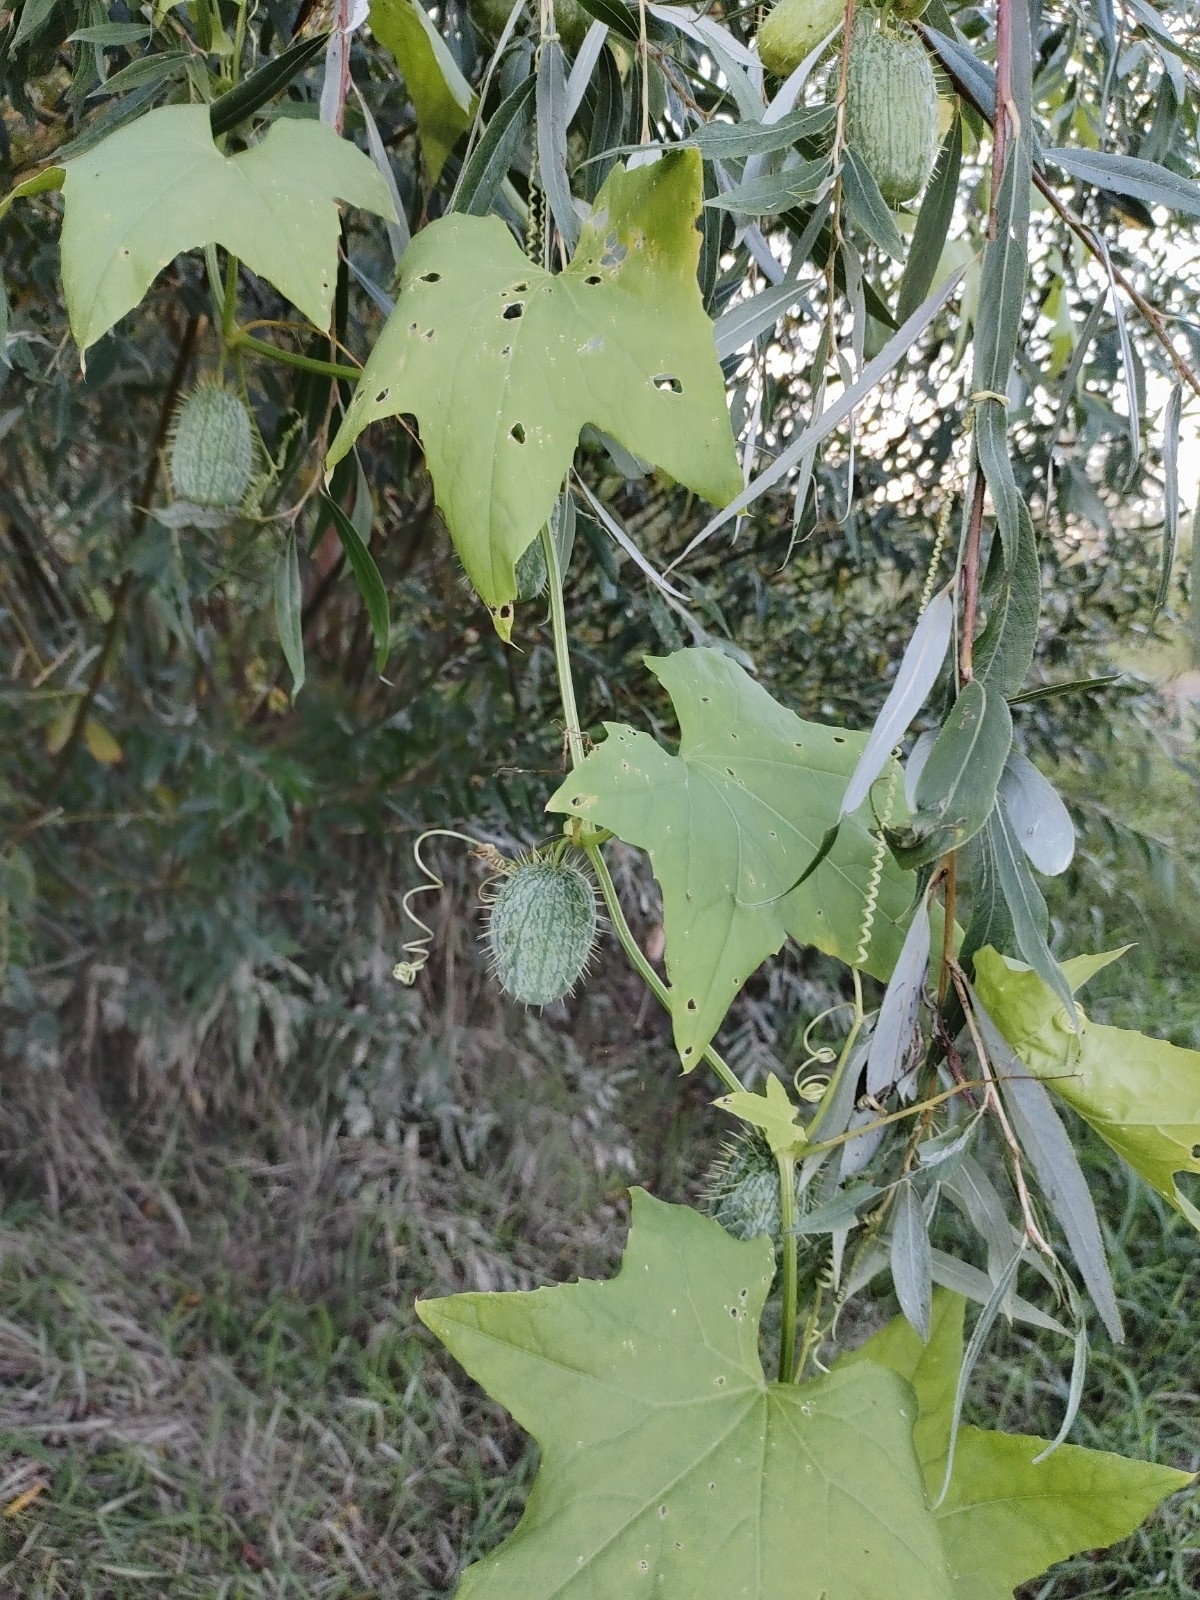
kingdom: Plantae
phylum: Tracheophyta
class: Magnoliopsida
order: Cucurbitales
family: Cucurbitaceae
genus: Echinocystis
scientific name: Echinocystis lobata
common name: Wild cucumber
